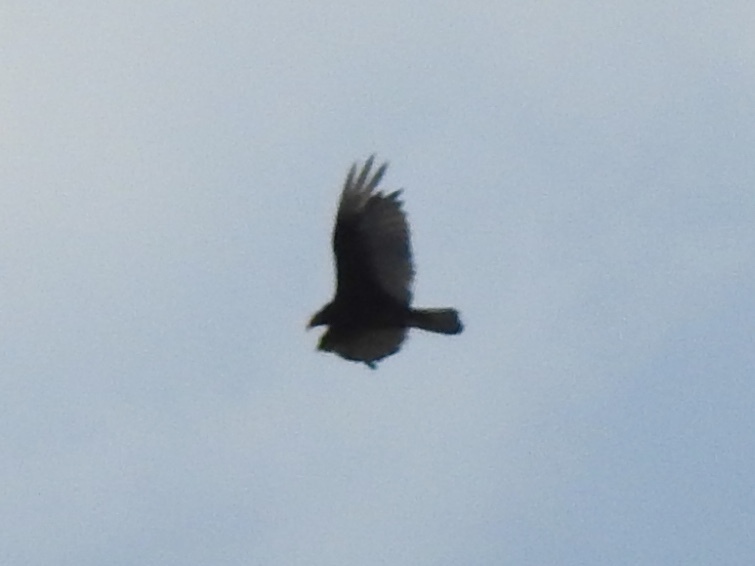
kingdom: Animalia
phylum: Chordata
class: Aves
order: Accipitriformes
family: Cathartidae
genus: Cathartes
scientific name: Cathartes aura
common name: Turkey vulture
